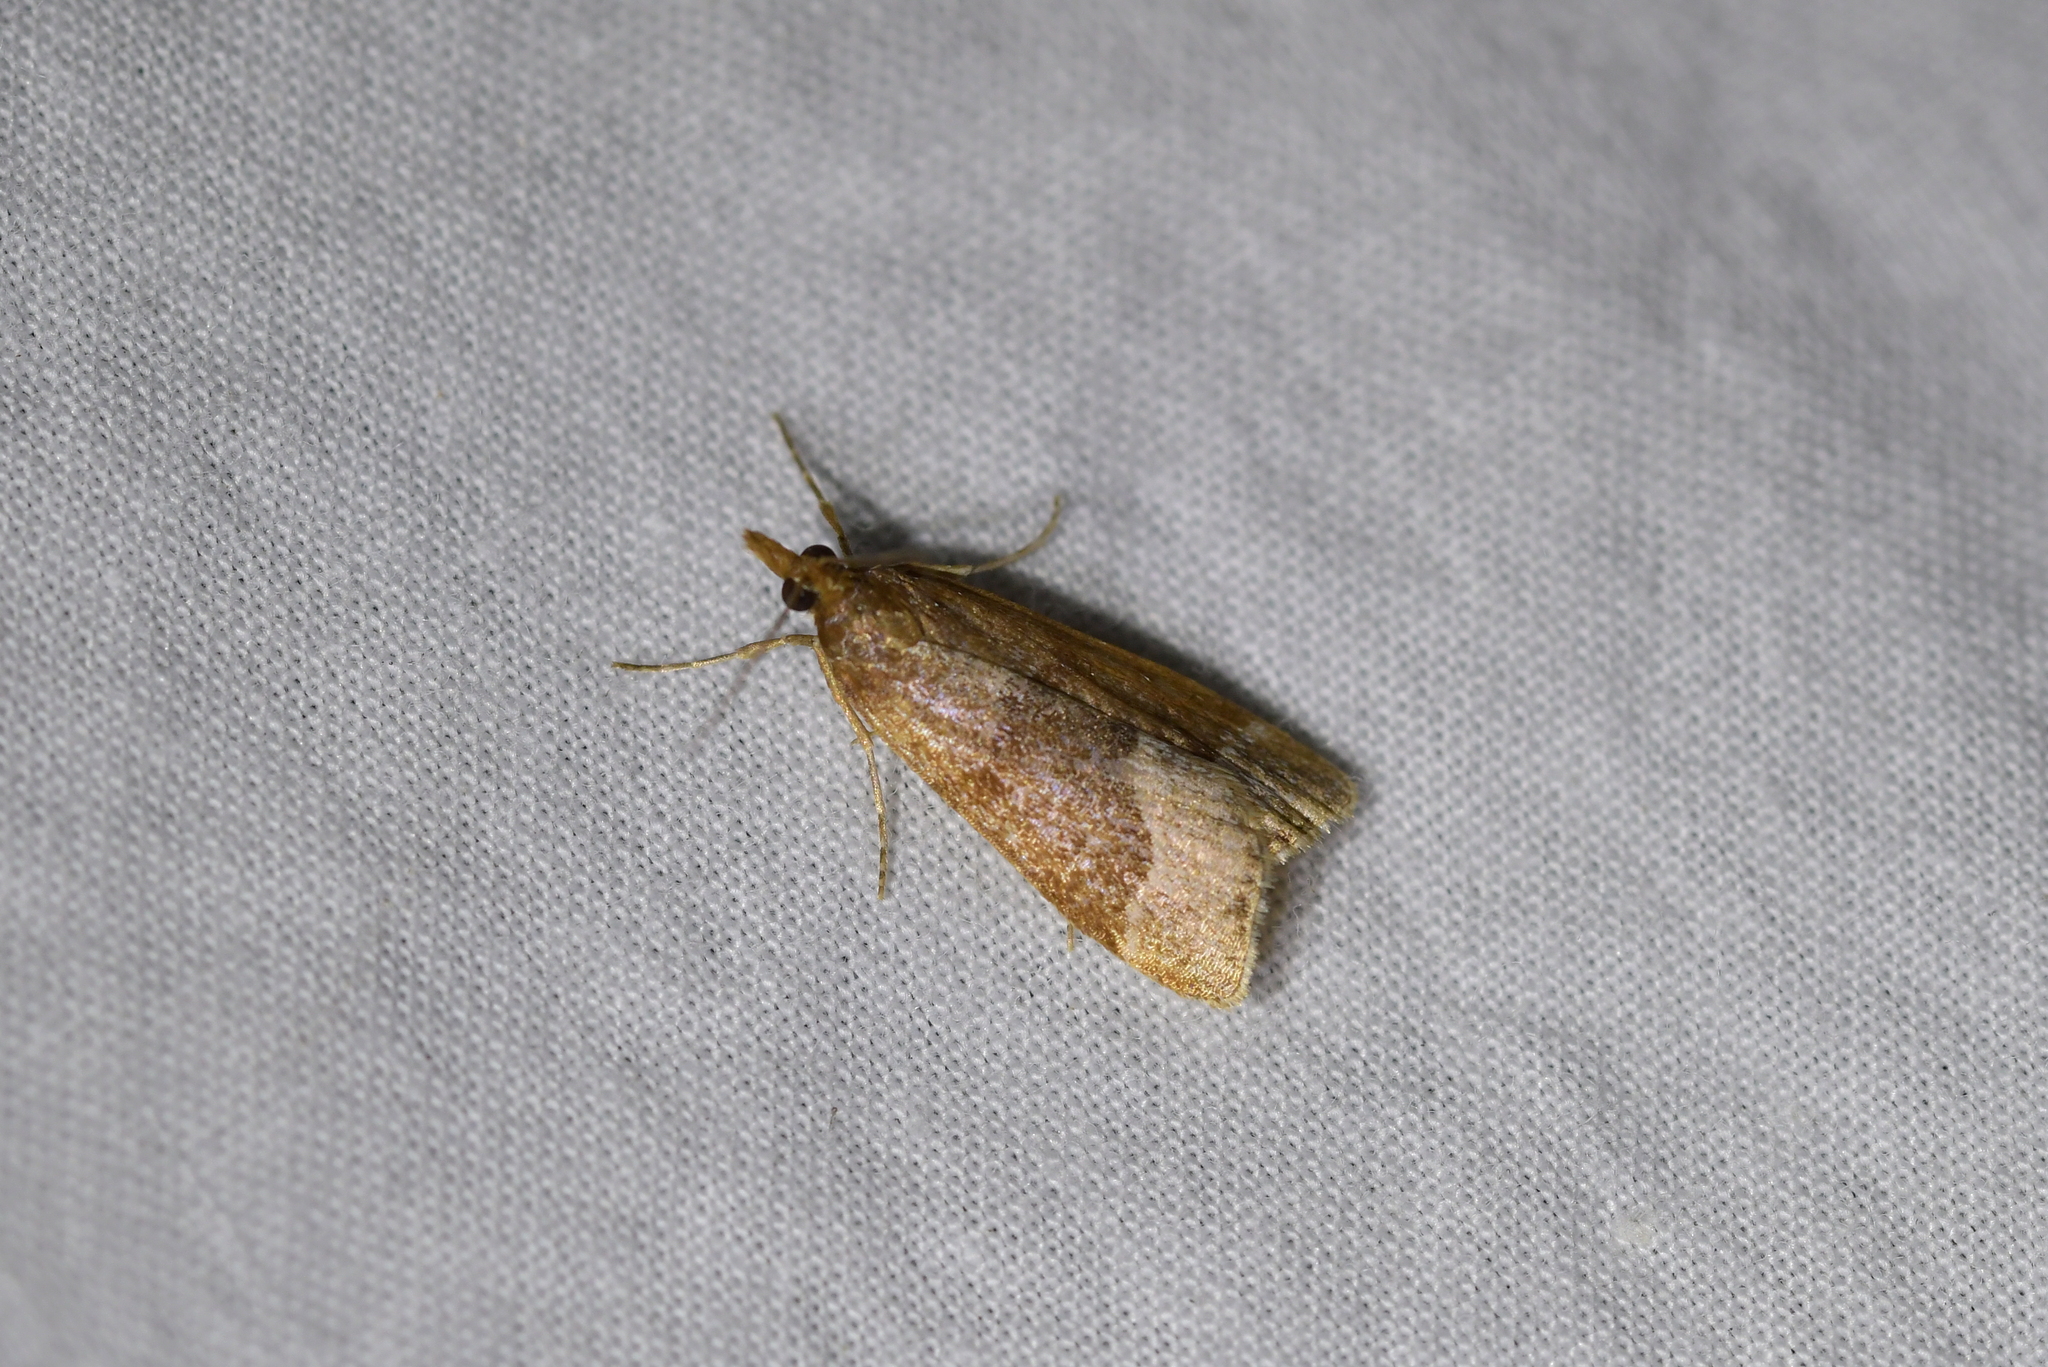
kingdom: Animalia
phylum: Arthropoda
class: Insecta
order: Lepidoptera
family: Crambidae
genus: Eudonia
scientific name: Eudonia feredayi
